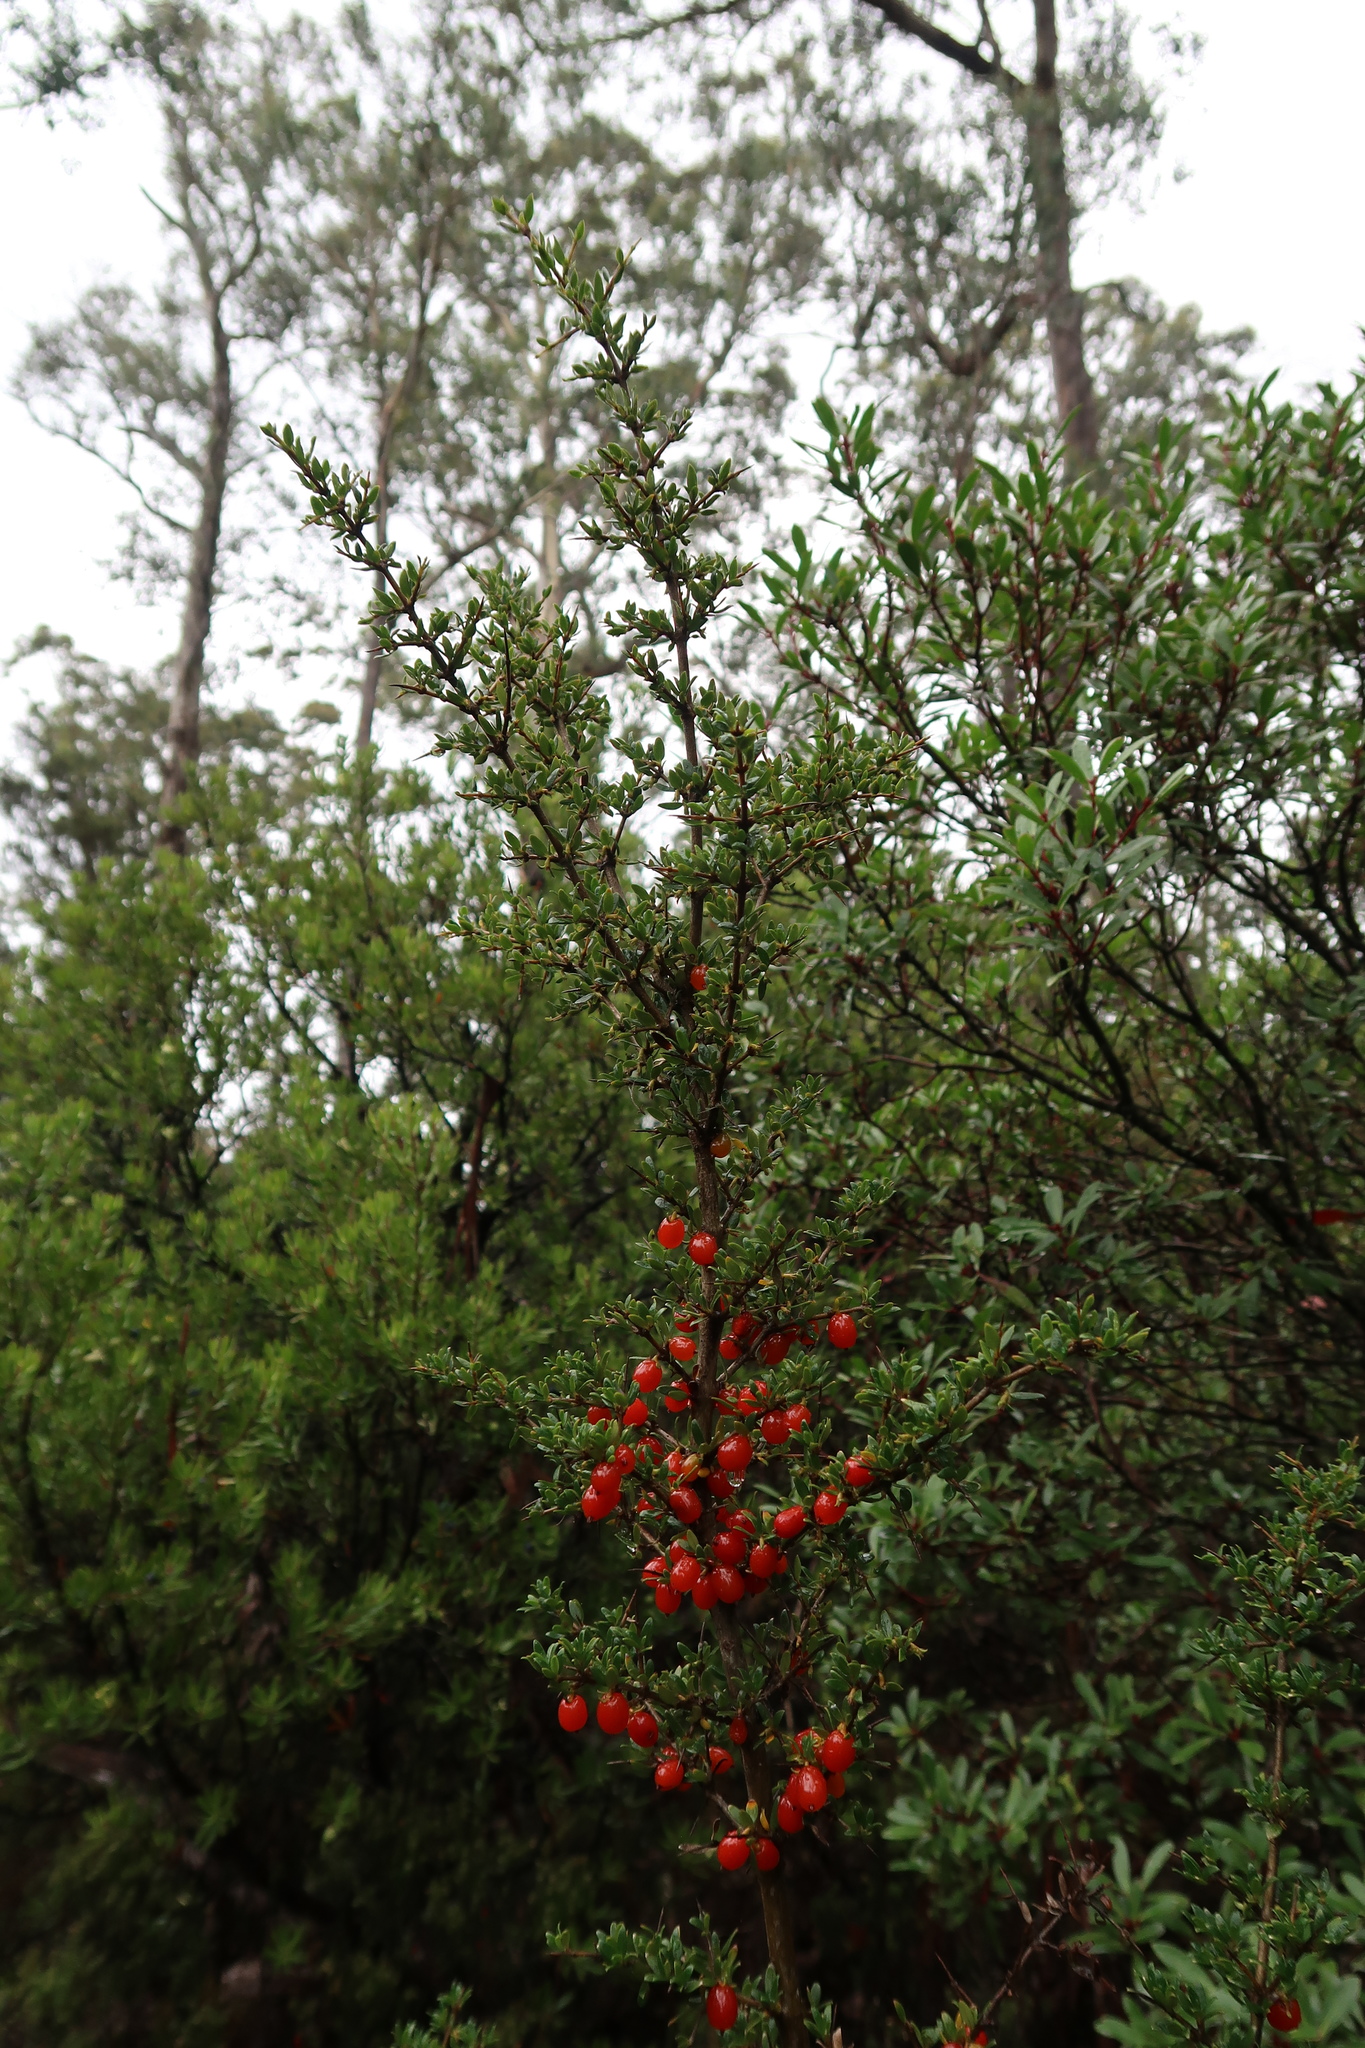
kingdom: Plantae
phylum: Tracheophyta
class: Magnoliopsida
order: Gentianales
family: Rubiaceae
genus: Coprosma
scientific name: Coprosma nitida
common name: Shining coprosma
